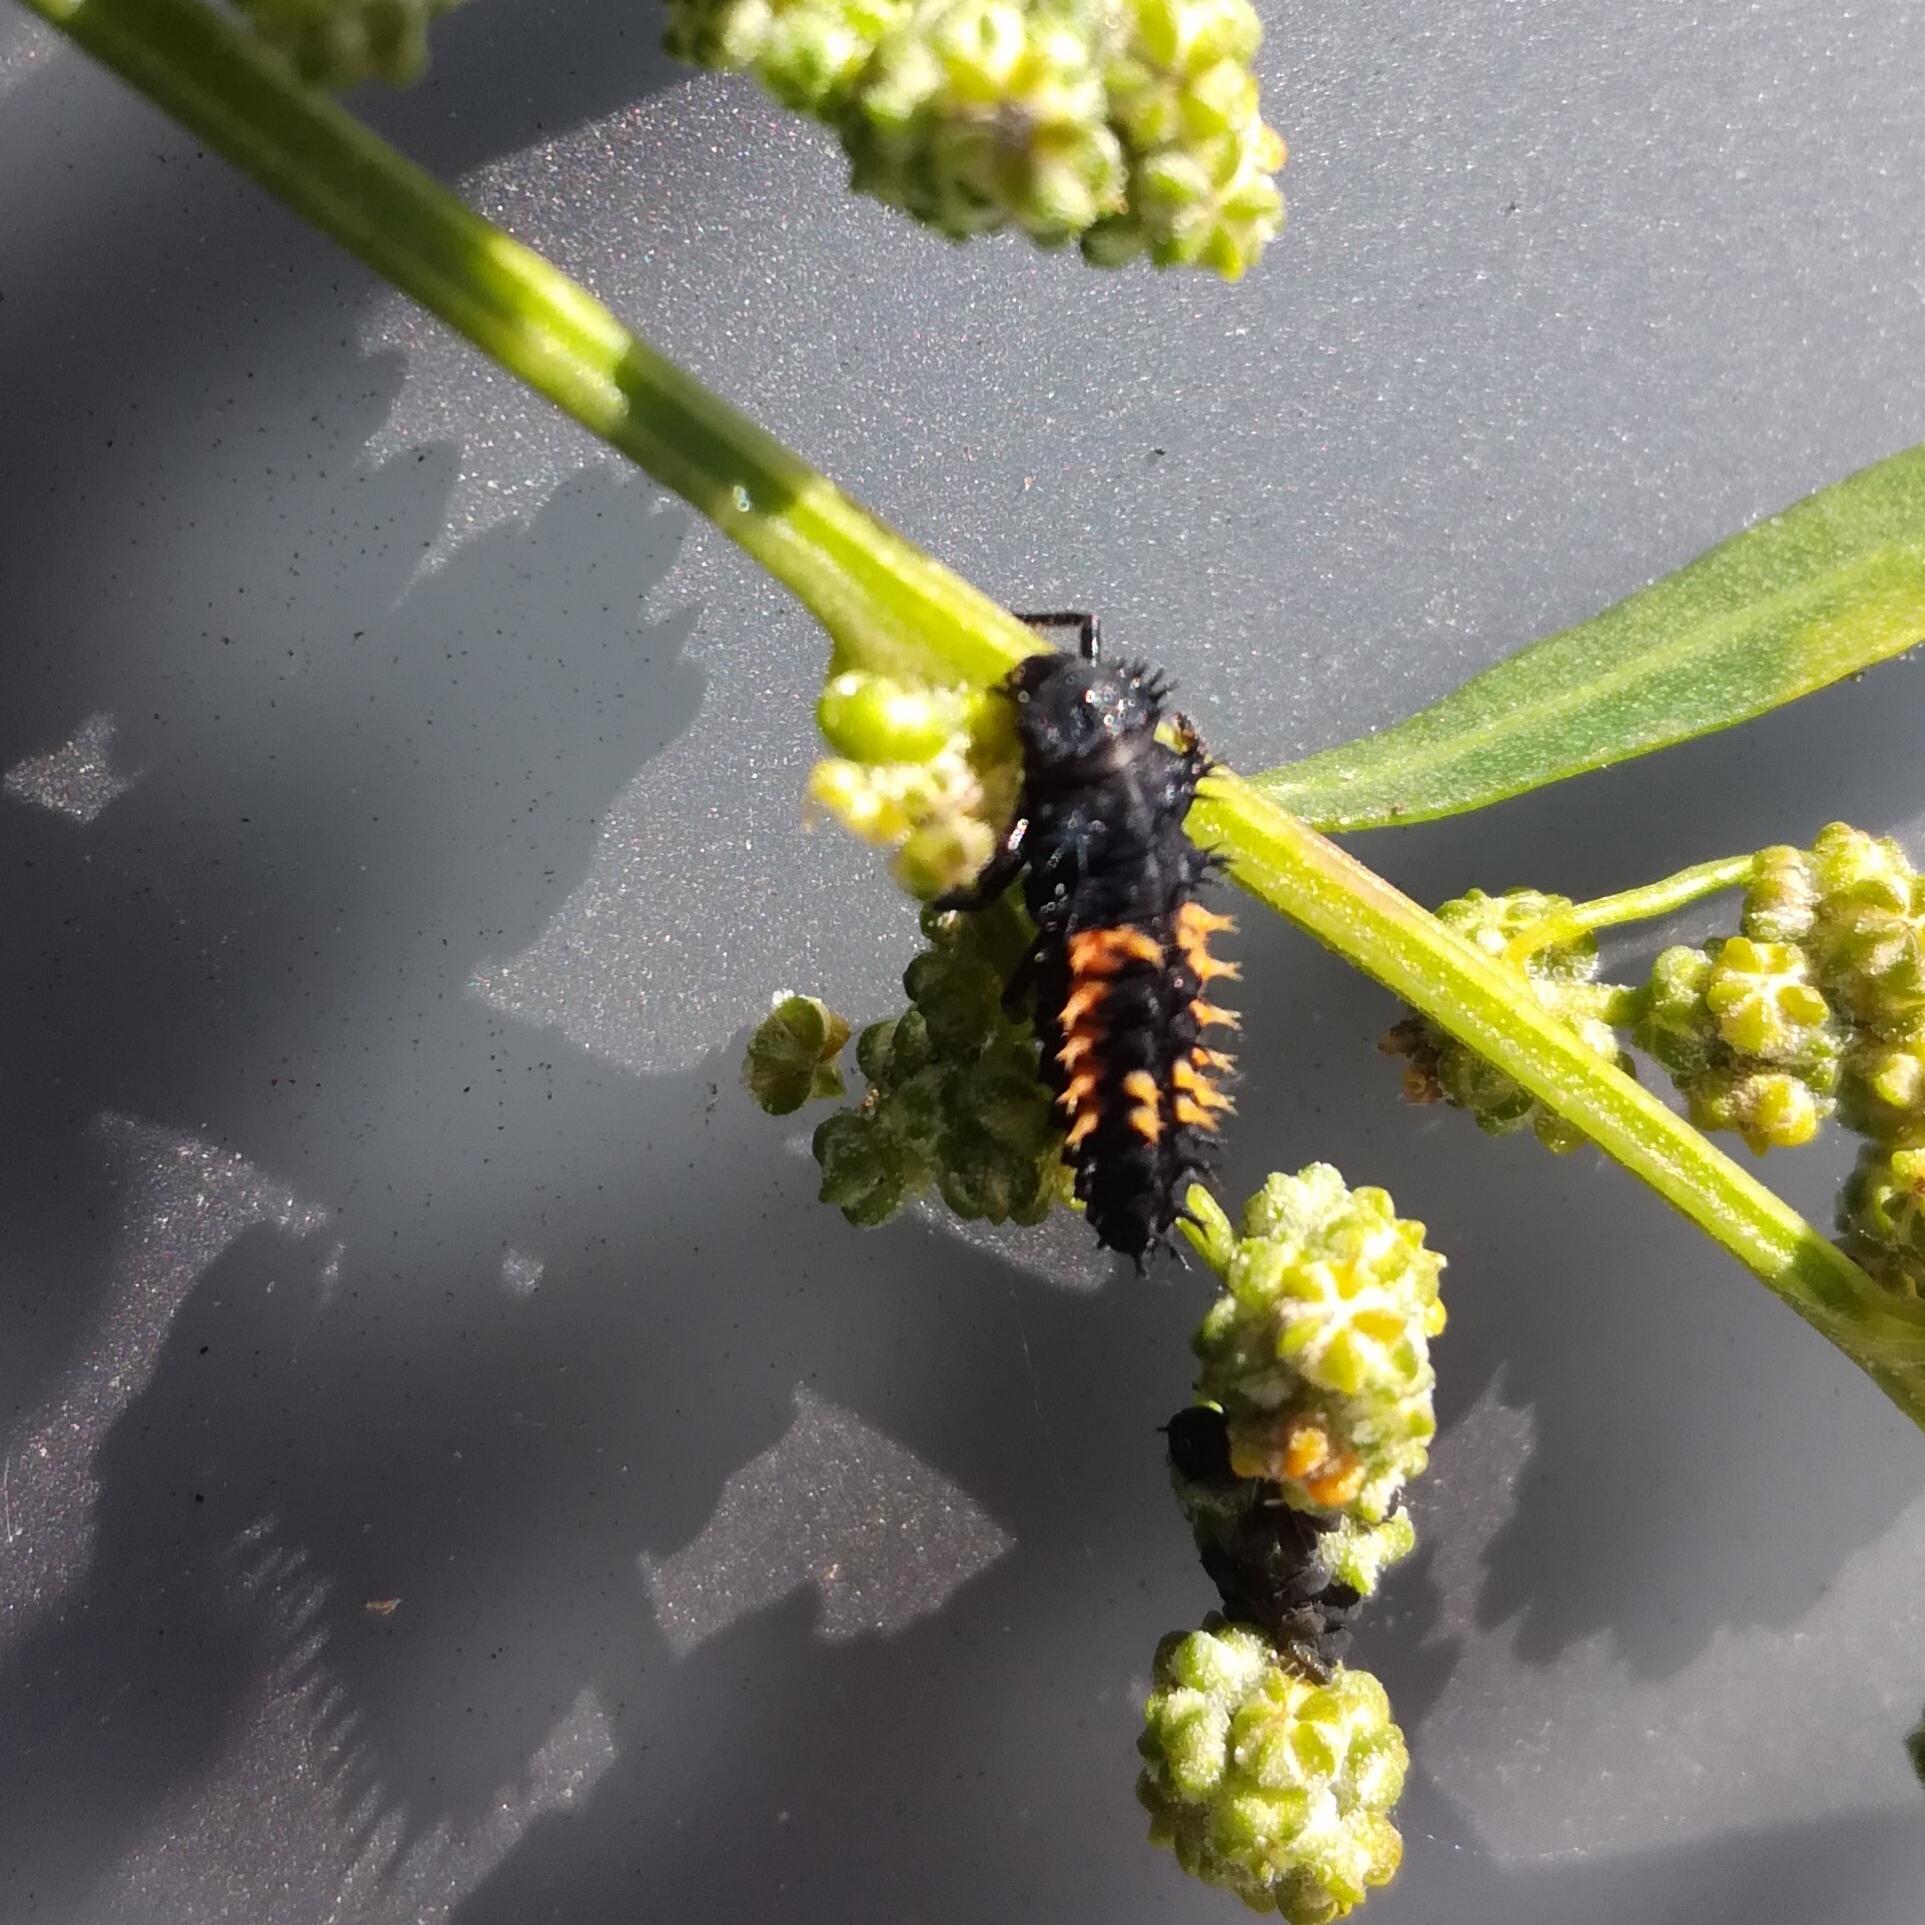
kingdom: Animalia
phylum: Arthropoda
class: Insecta
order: Coleoptera
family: Coccinellidae
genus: Harmonia
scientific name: Harmonia axyridis
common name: Harlequin ladybird
